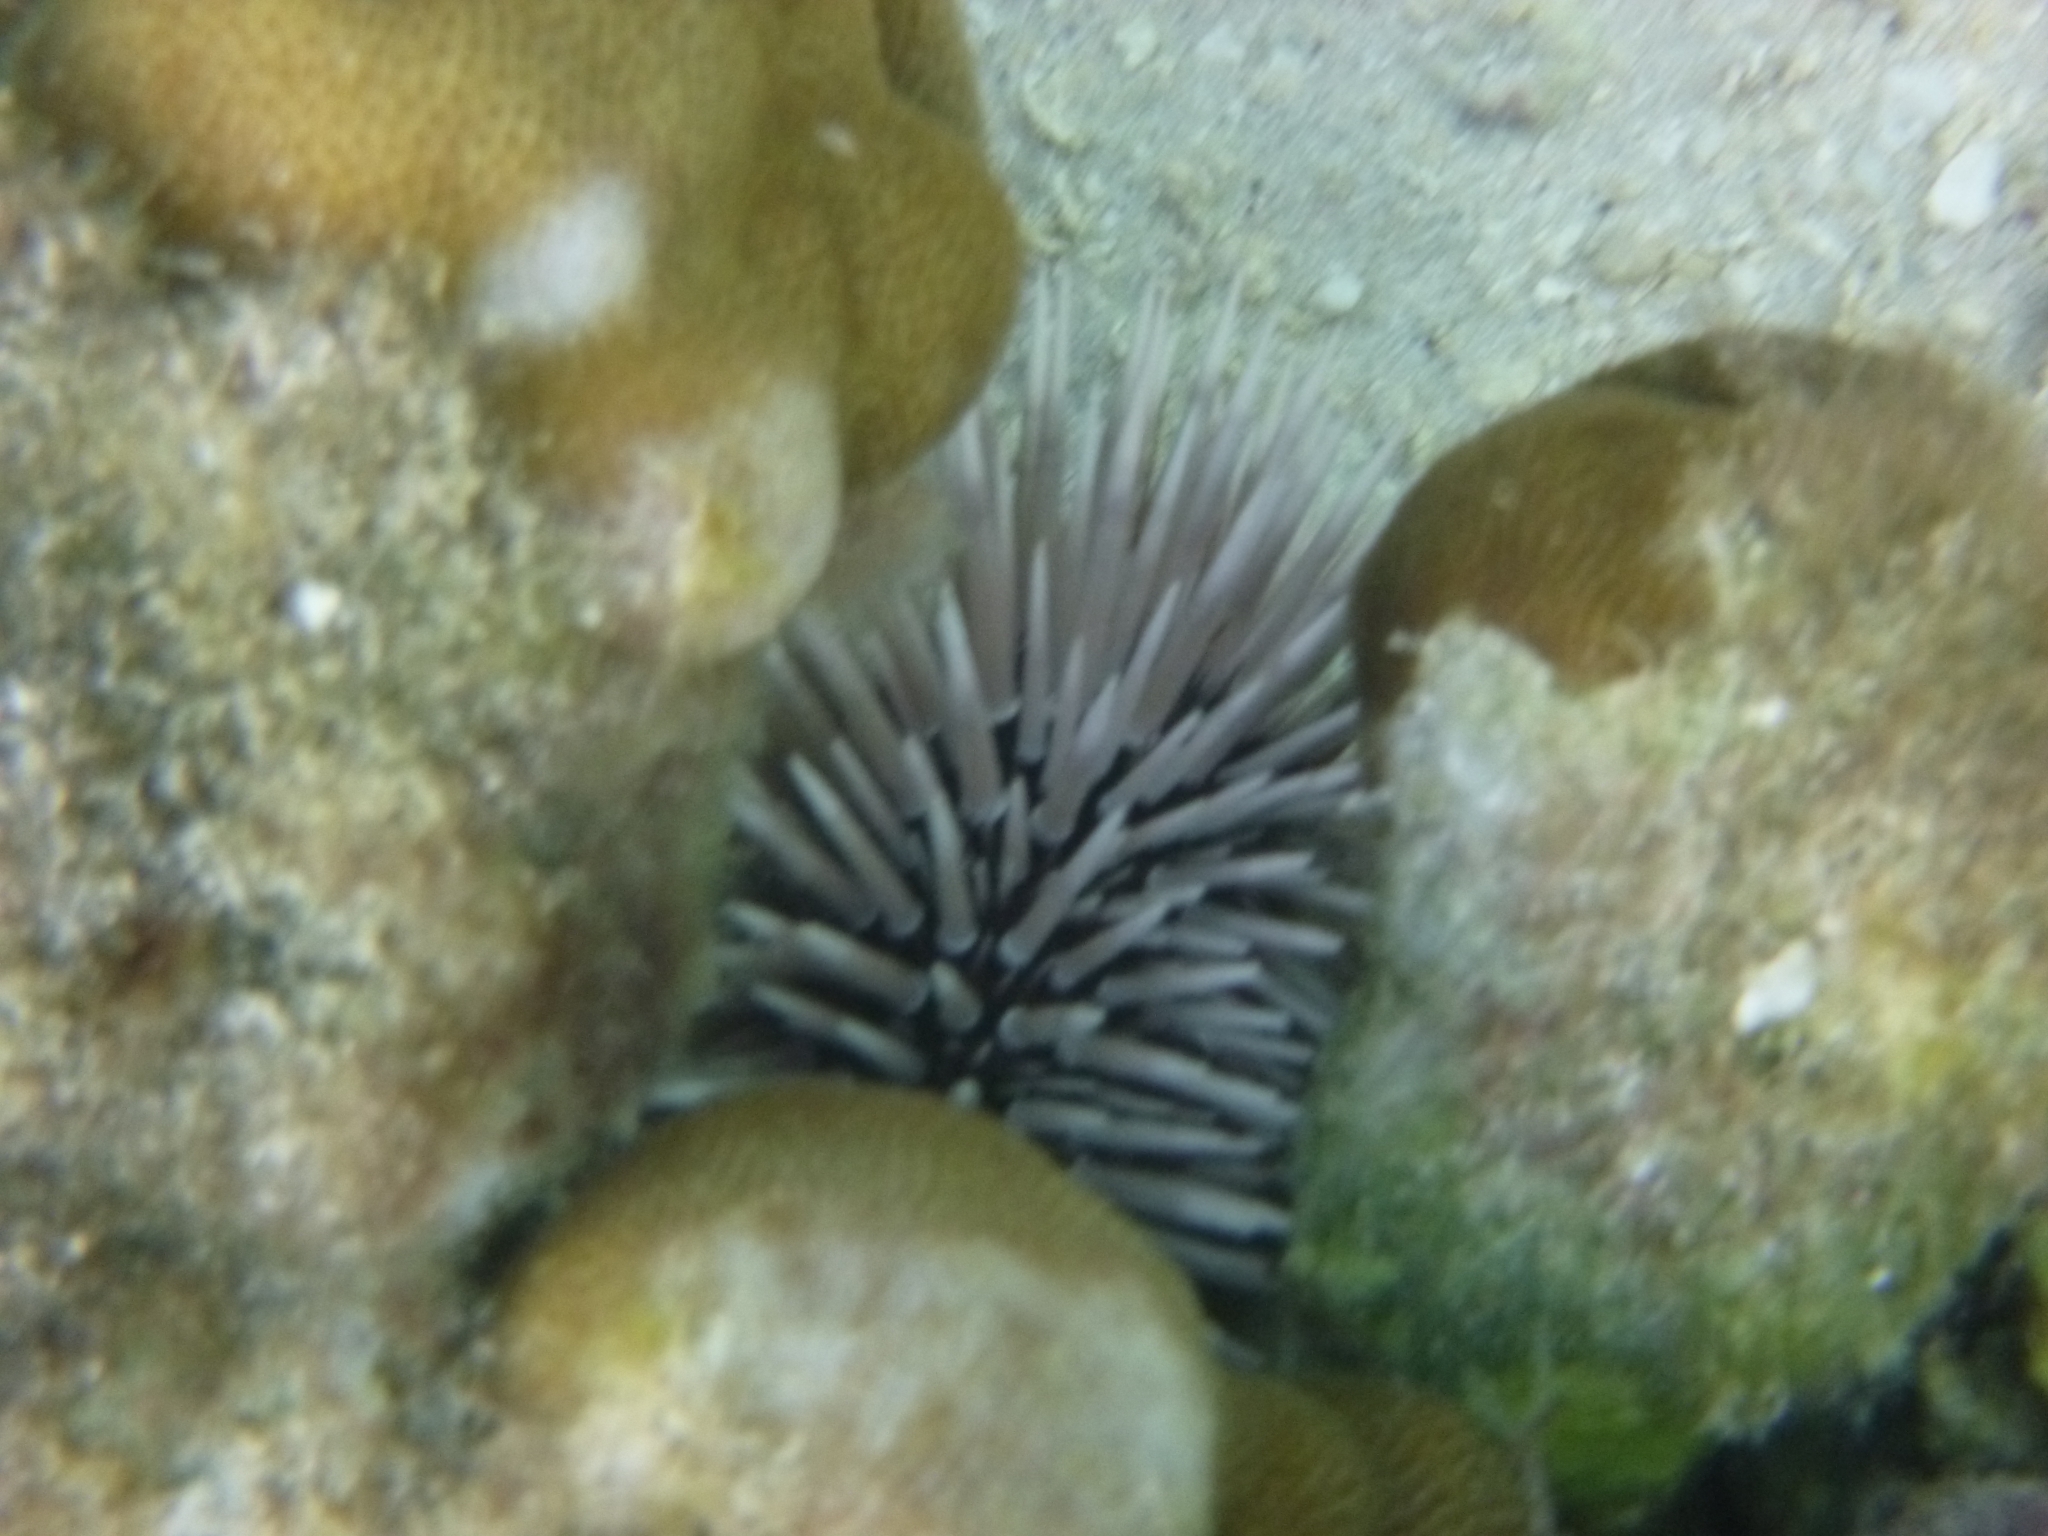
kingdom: Animalia
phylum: Echinodermata
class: Echinoidea
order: Camarodonta
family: Echinometridae
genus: Echinometra
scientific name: Echinometra mathaei
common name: Rock-boring urchin
